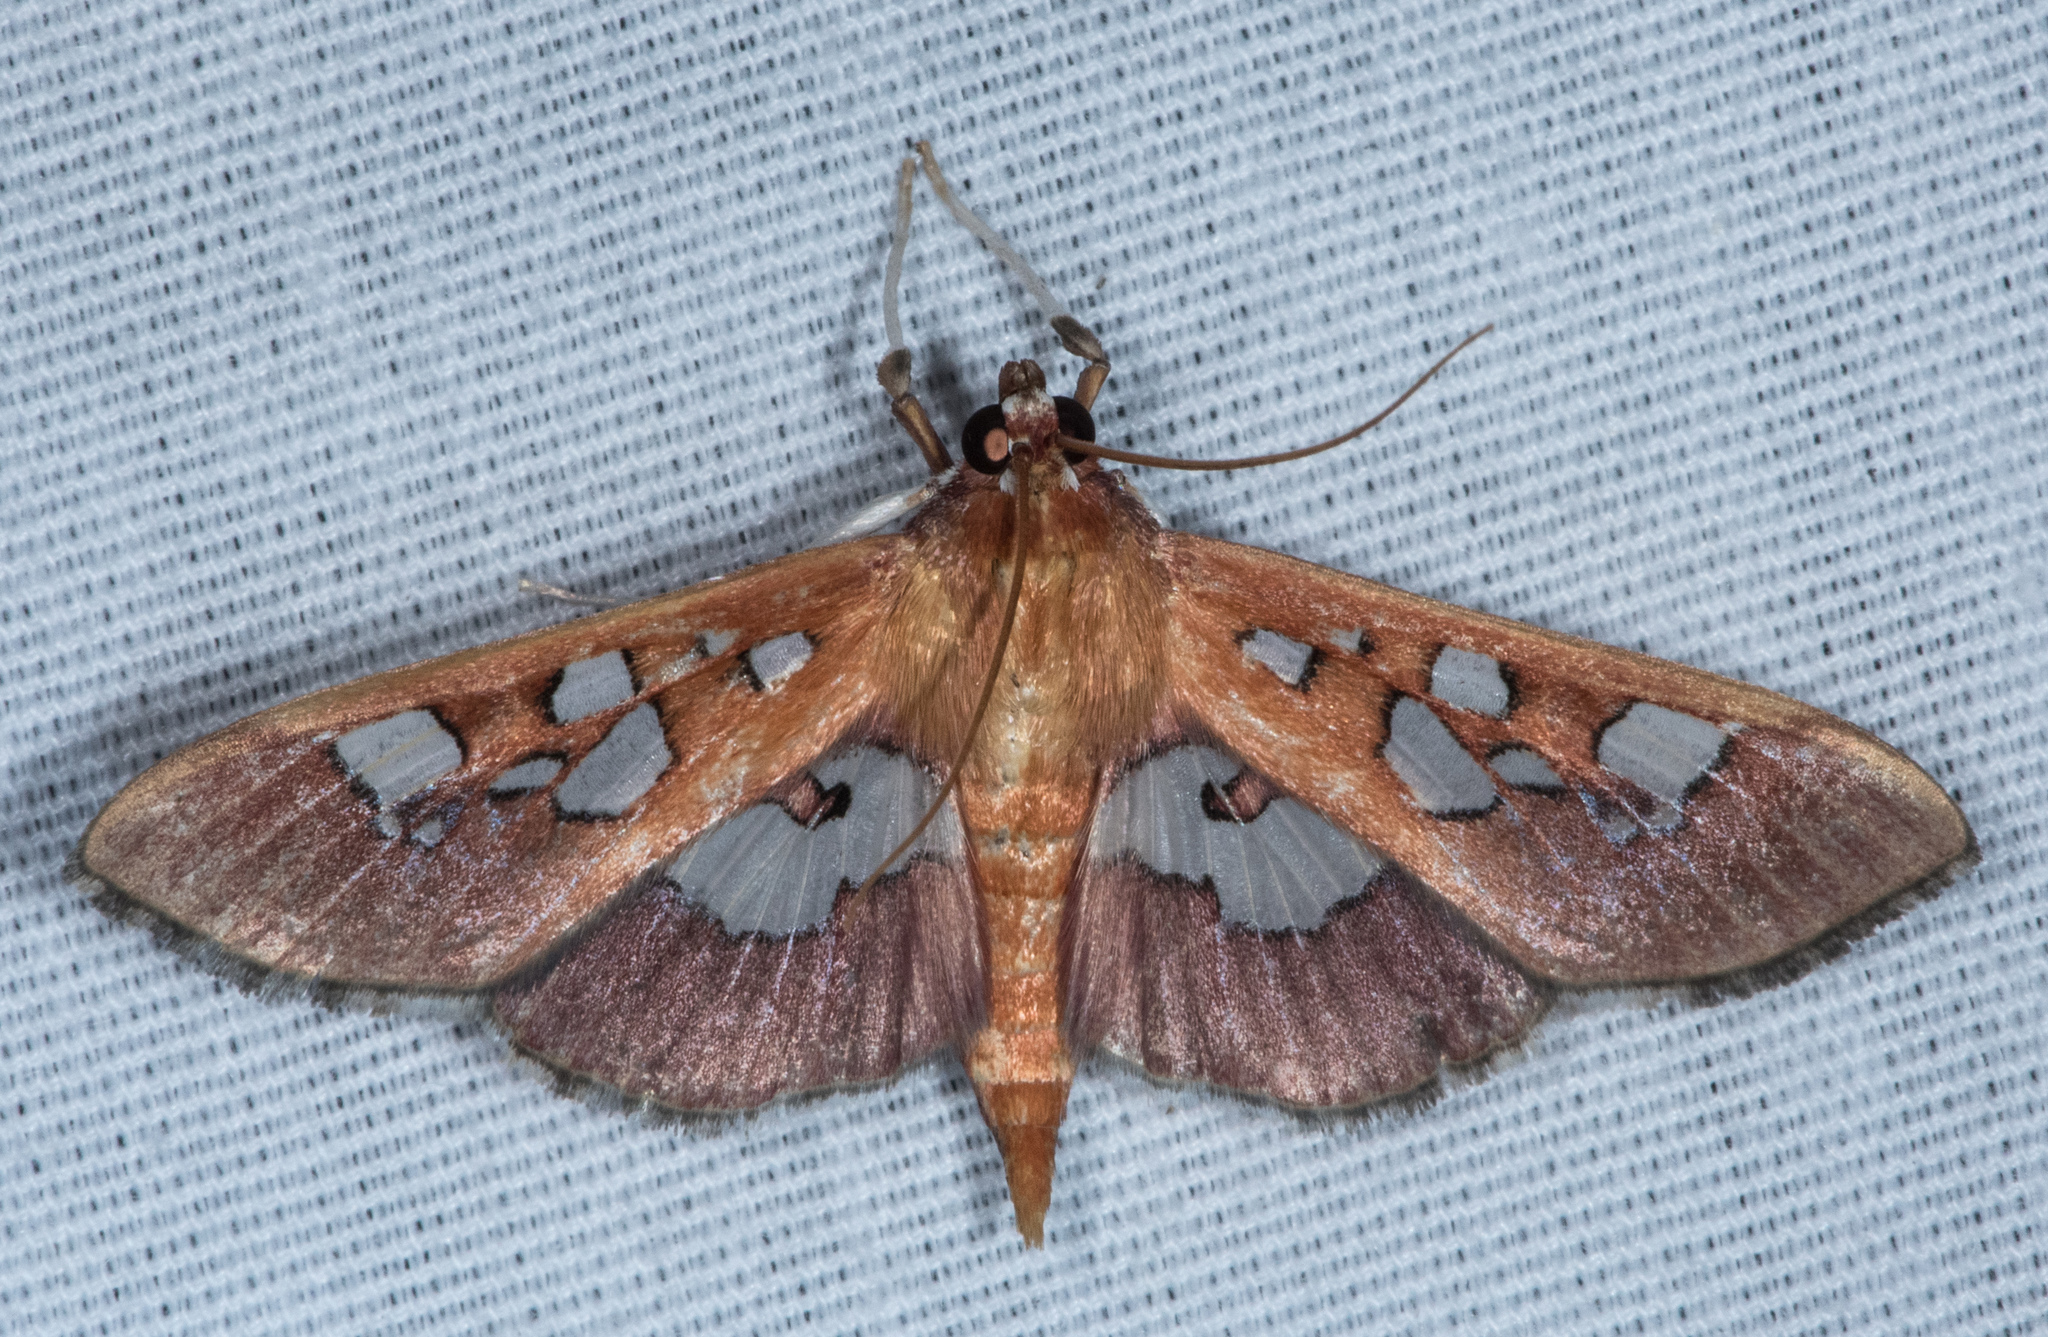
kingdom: Animalia
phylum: Arthropoda
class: Insecta
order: Lepidoptera
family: Crambidae
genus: Phostria
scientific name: Phostria tedea
